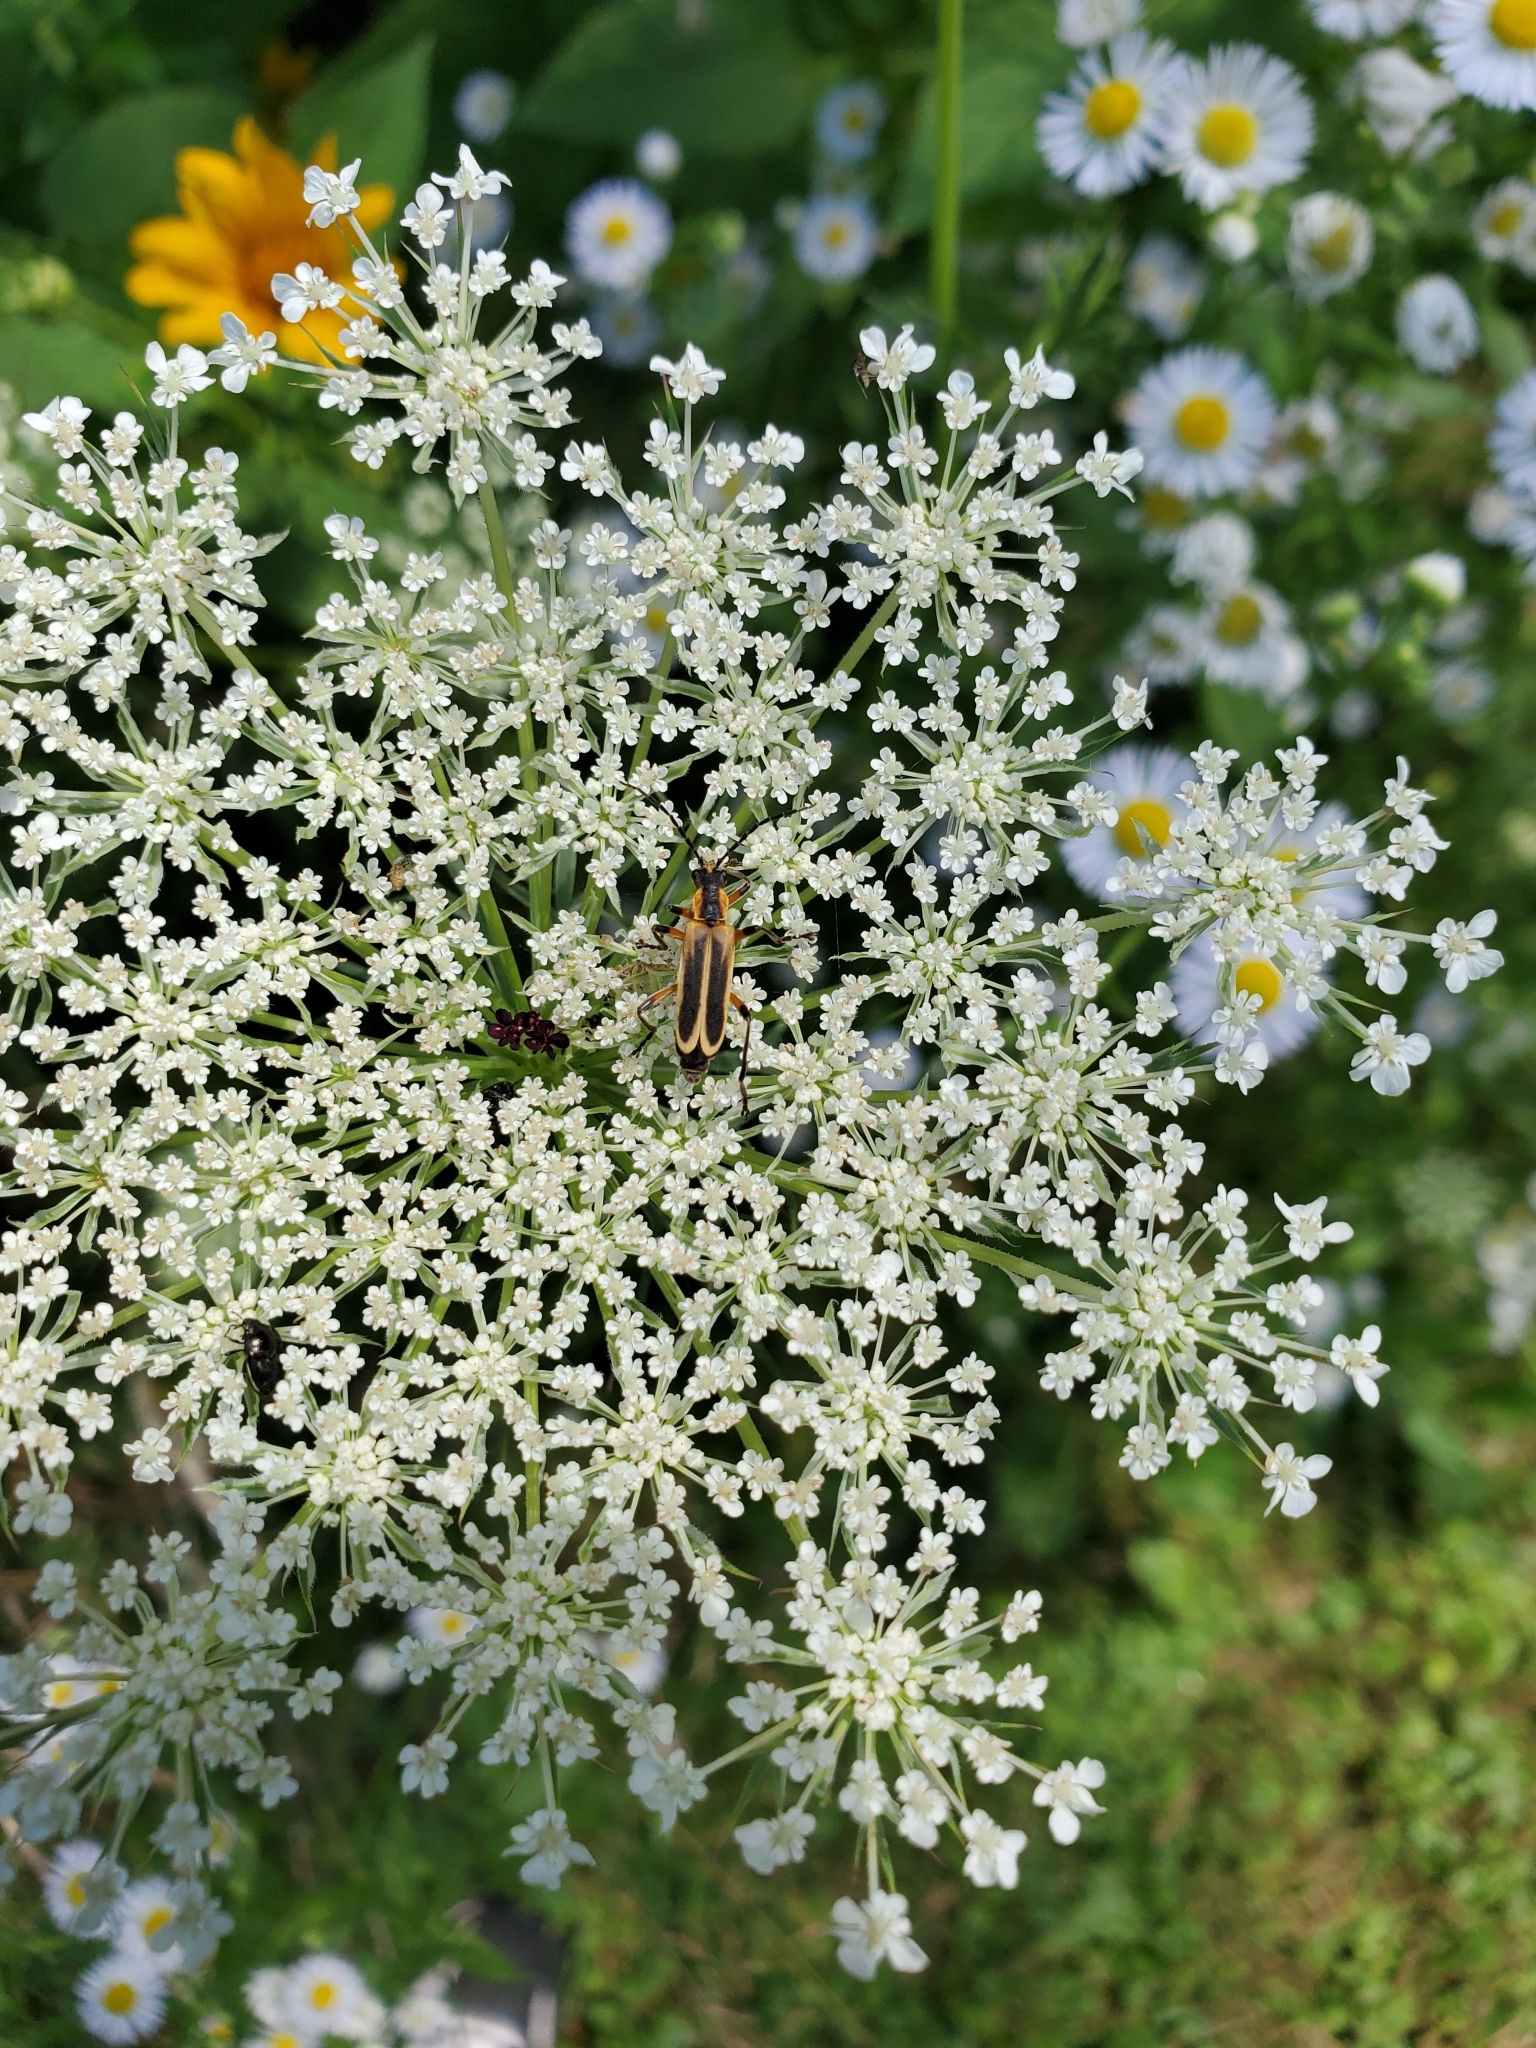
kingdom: Animalia
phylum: Arthropoda
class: Insecta
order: Coleoptera
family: Cantharidae
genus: Chauliognathus
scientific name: Chauliognathus marginatus
